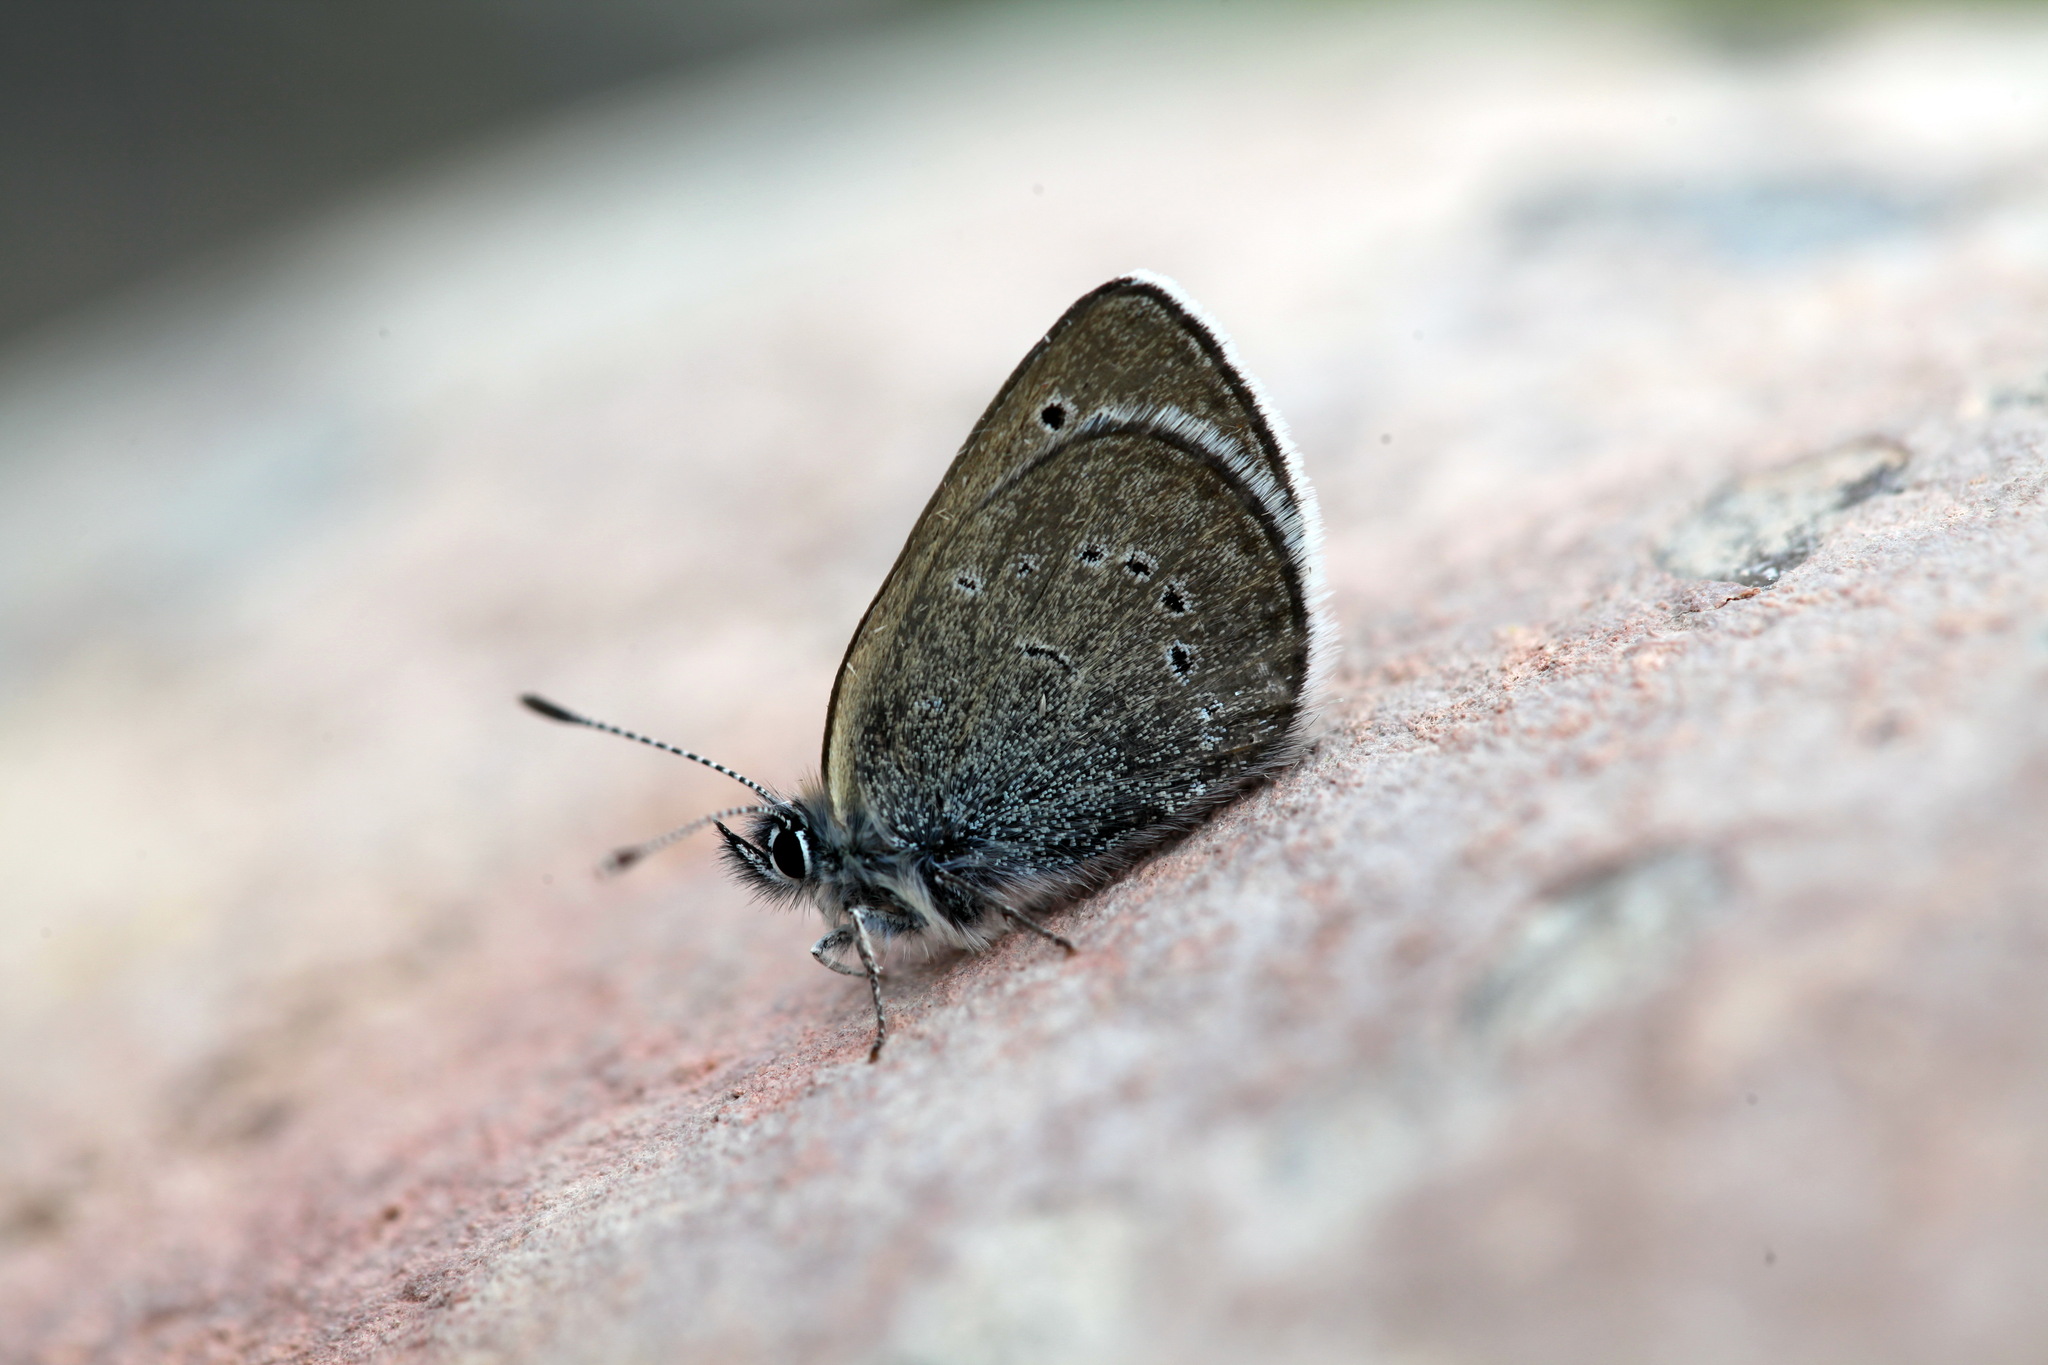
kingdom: Animalia
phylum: Arthropoda
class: Insecta
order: Lepidoptera
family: Lycaenidae
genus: Glaucopsyche
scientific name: Glaucopsyche argali
